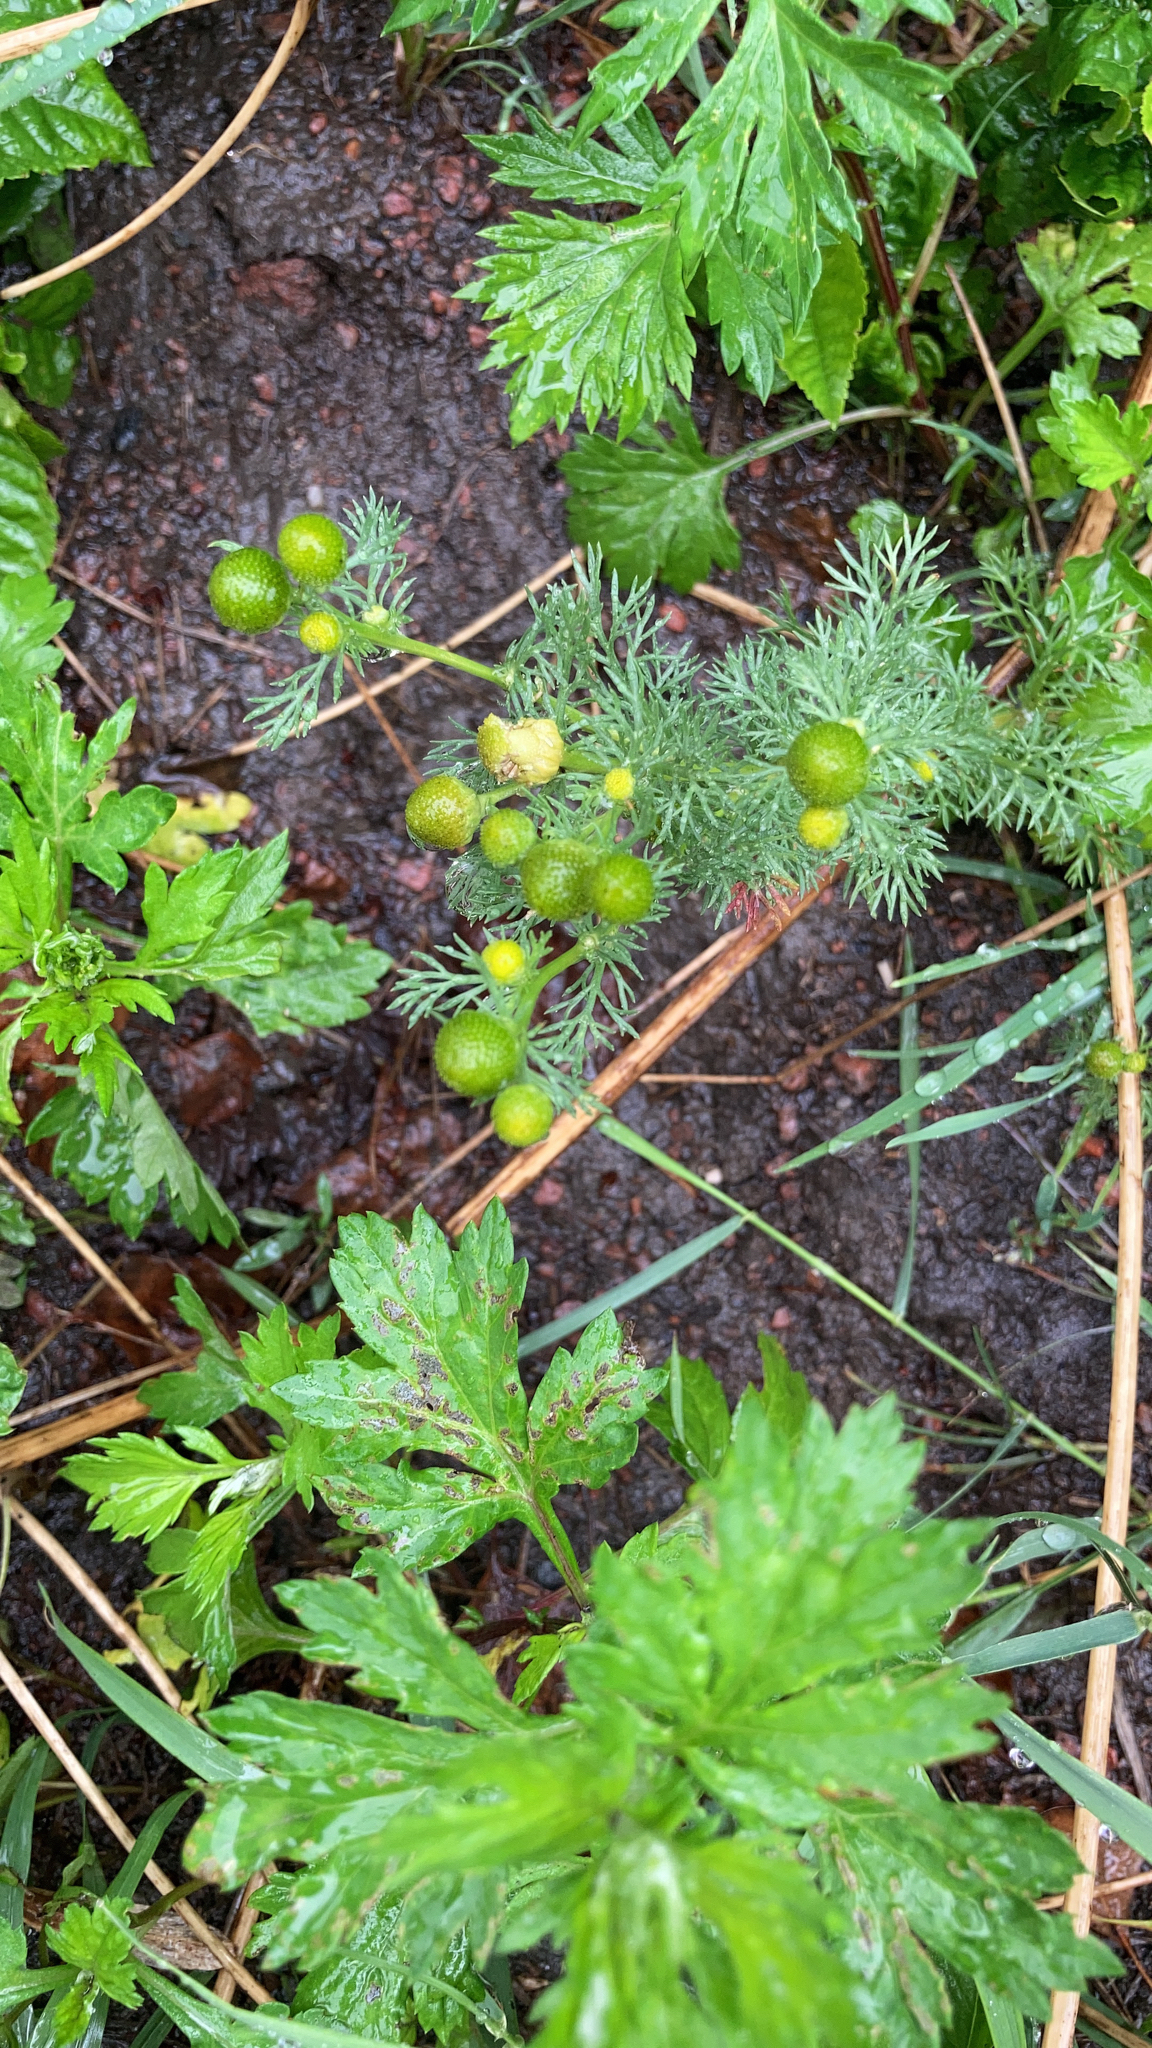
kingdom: Plantae
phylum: Tracheophyta
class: Magnoliopsida
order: Asterales
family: Asteraceae
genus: Matricaria
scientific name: Matricaria discoidea
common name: Disc mayweed
